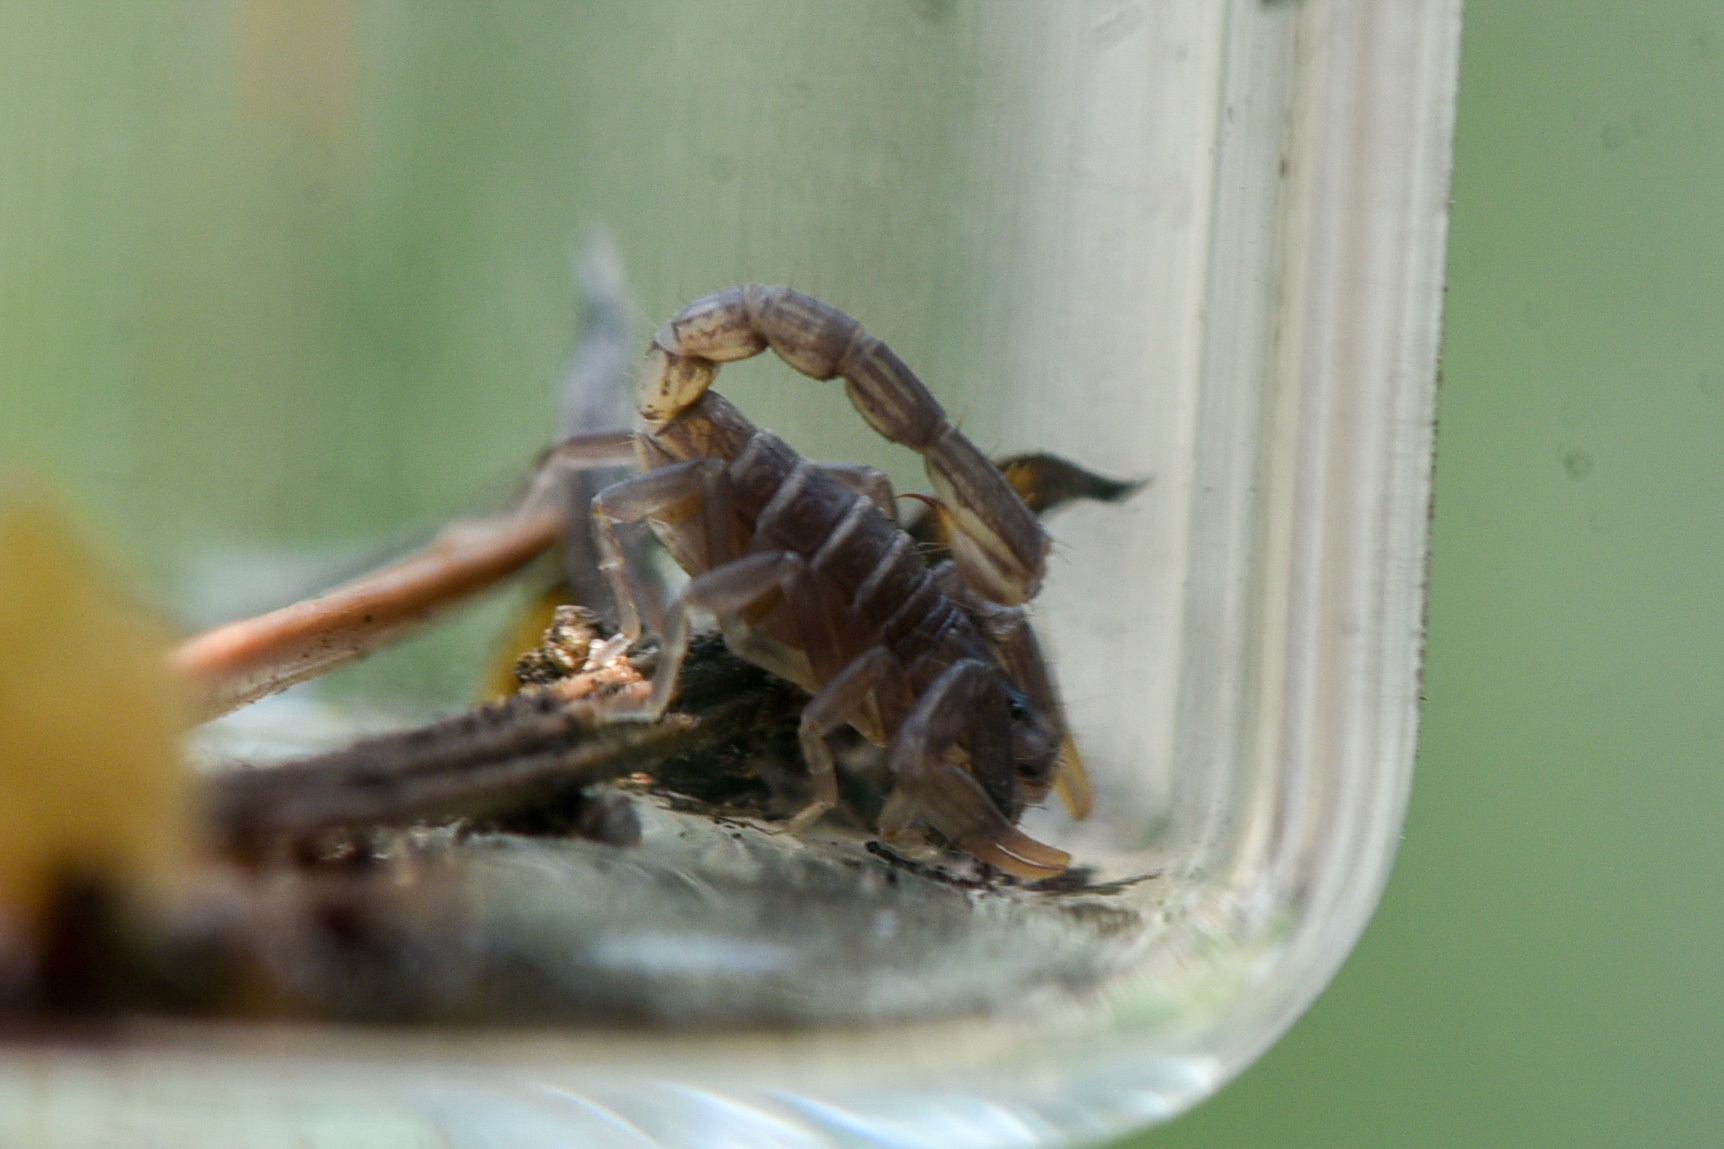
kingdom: Animalia
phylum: Arthropoda
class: Arachnida
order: Scorpiones
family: Vaejovidae
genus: Paruroctonus
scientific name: Paruroctonus boreus
